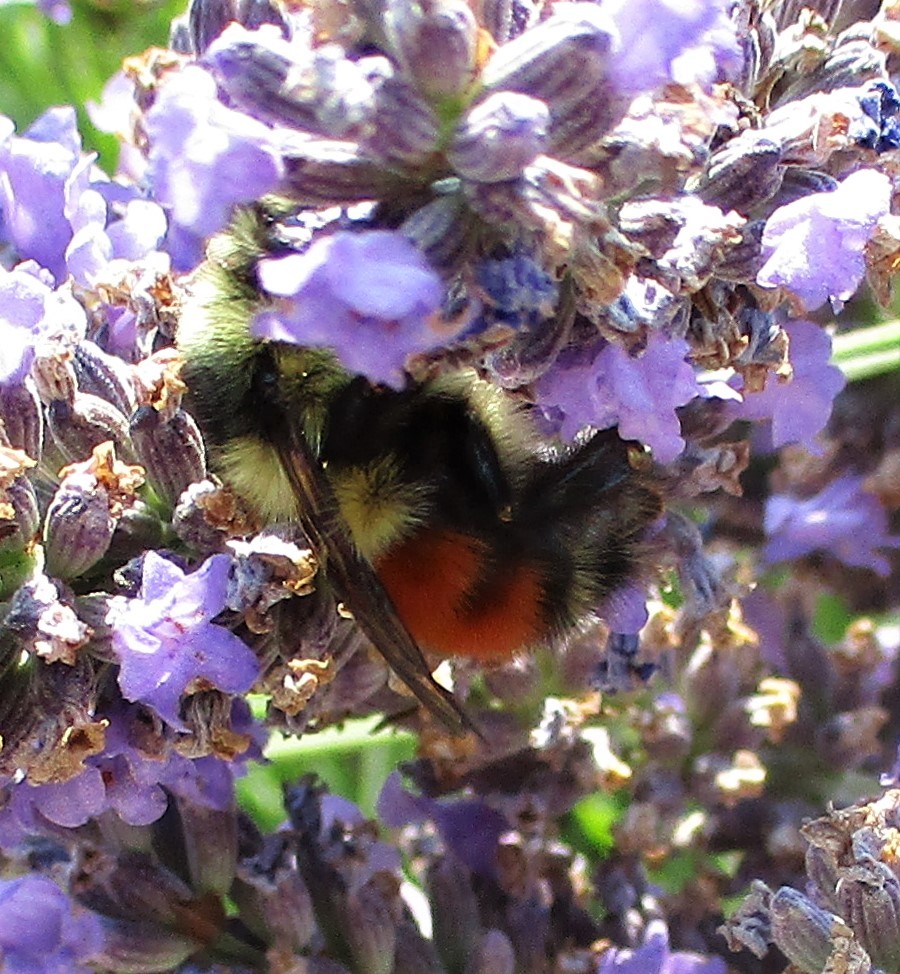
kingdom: Animalia
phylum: Arthropoda
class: Insecta
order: Hymenoptera
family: Apidae
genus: Bombus
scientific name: Bombus melanopygus
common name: Black tail bumble bee
